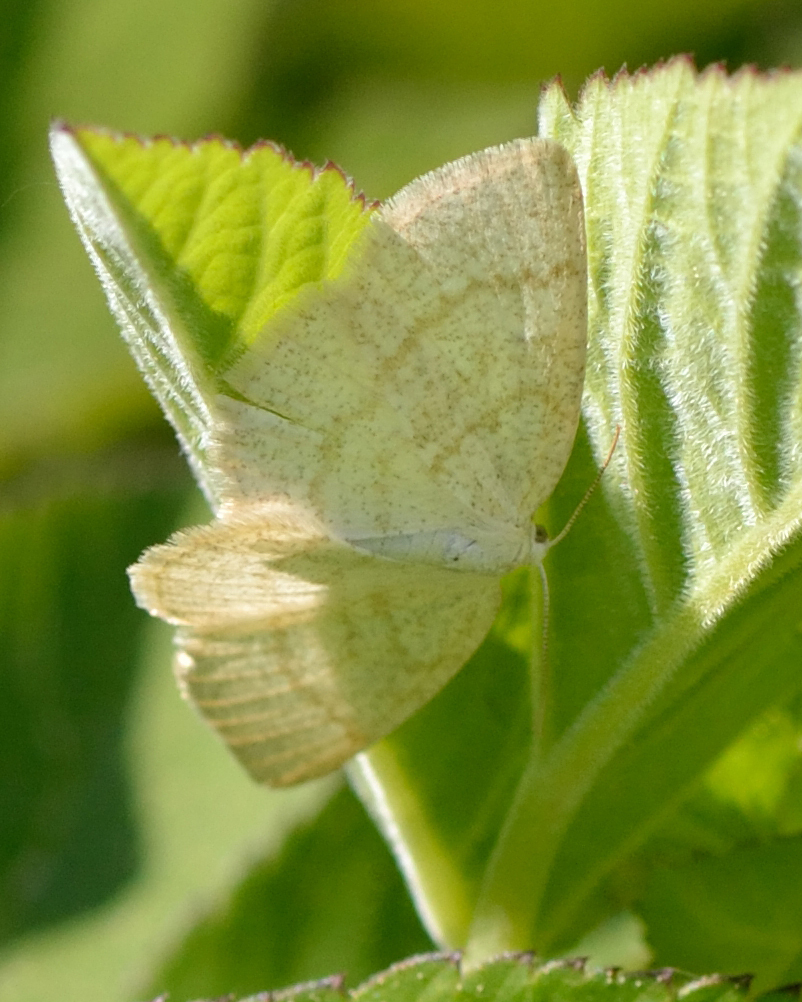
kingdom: Animalia
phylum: Arthropoda
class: Insecta
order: Lepidoptera
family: Geometridae
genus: Cabera
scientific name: Cabera exanthemata
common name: Common wave
